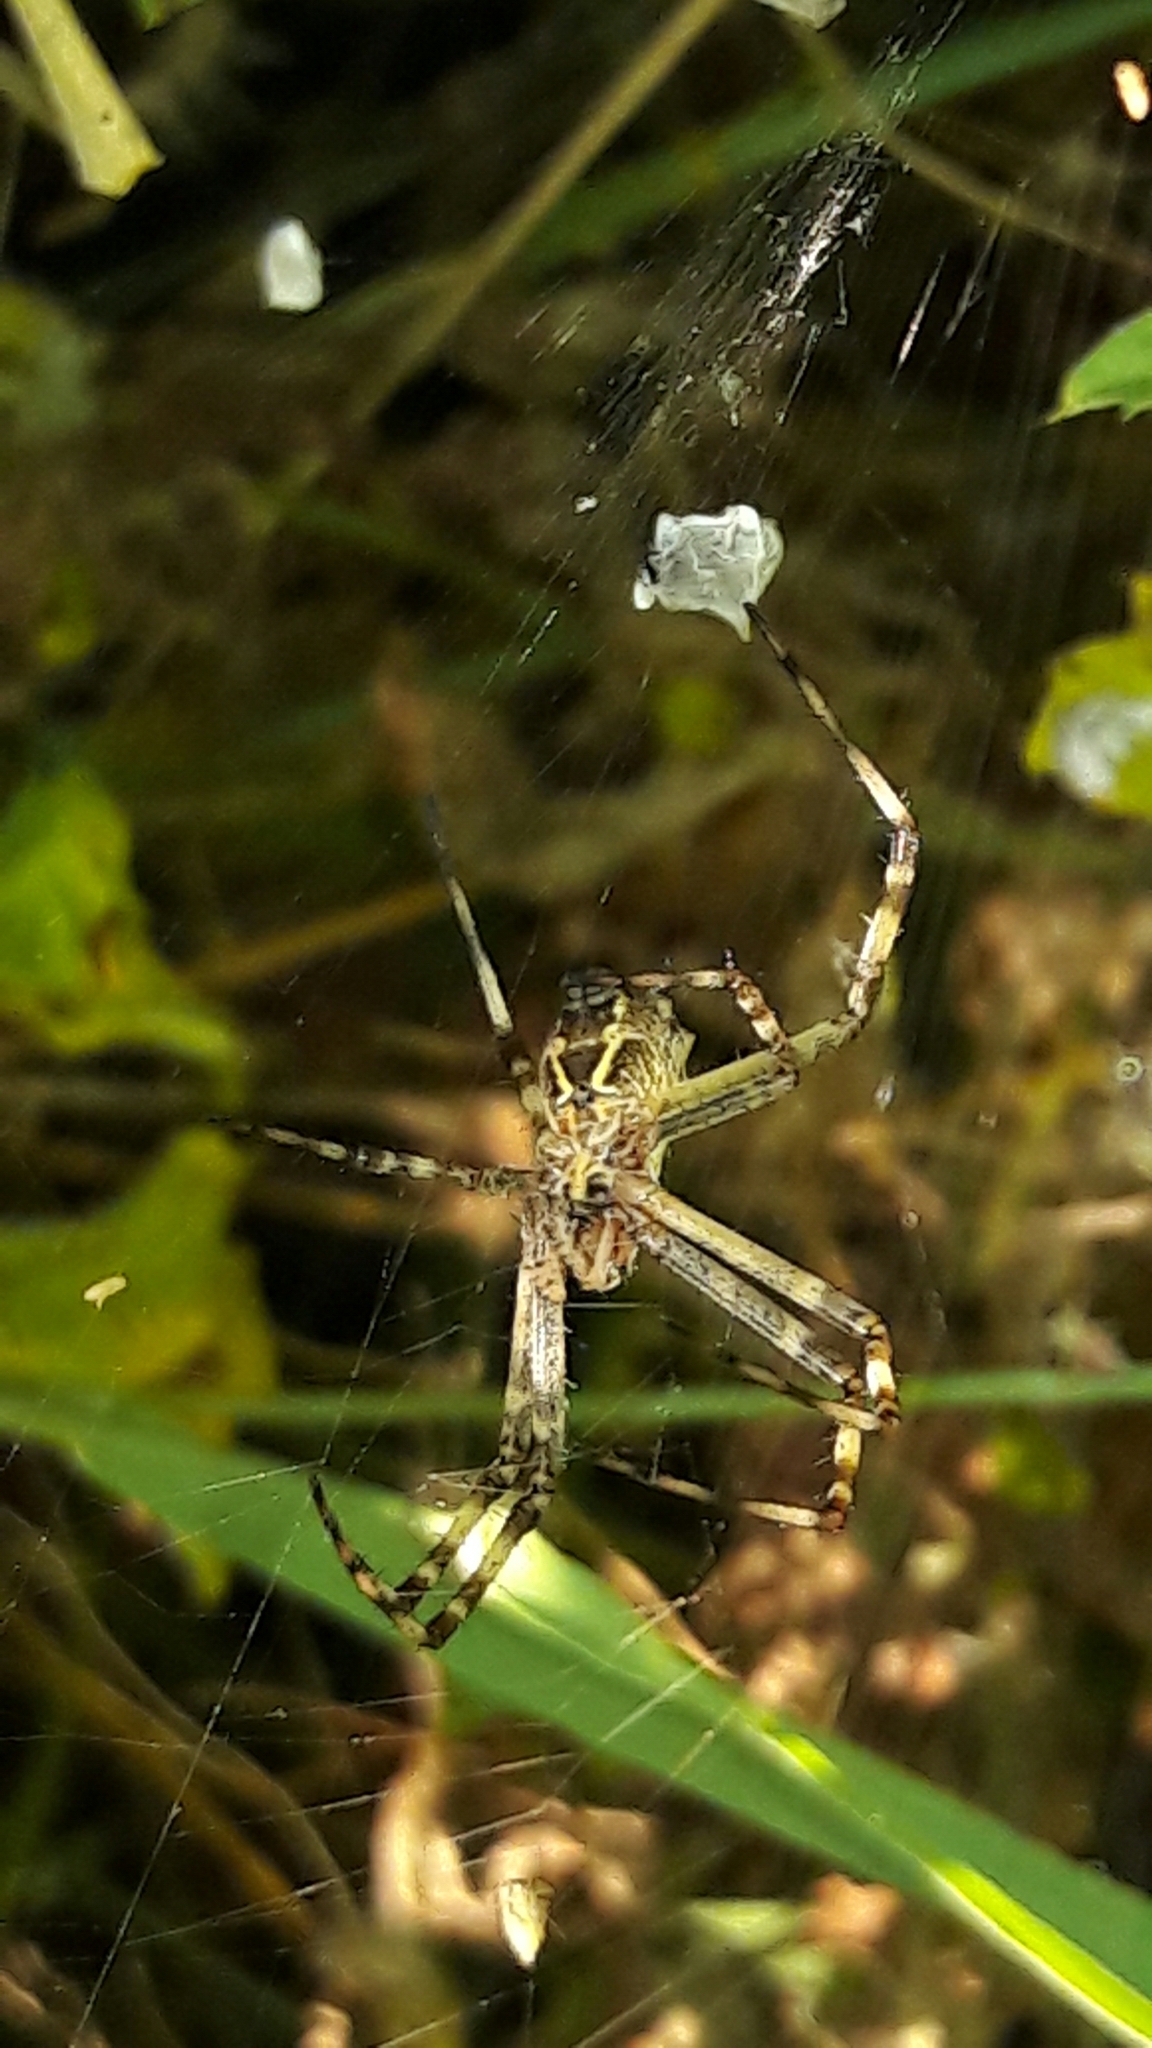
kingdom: Animalia
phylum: Arthropoda
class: Arachnida
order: Araneae
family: Araneidae
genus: Argiope
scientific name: Argiope argentata
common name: Orb weavers
